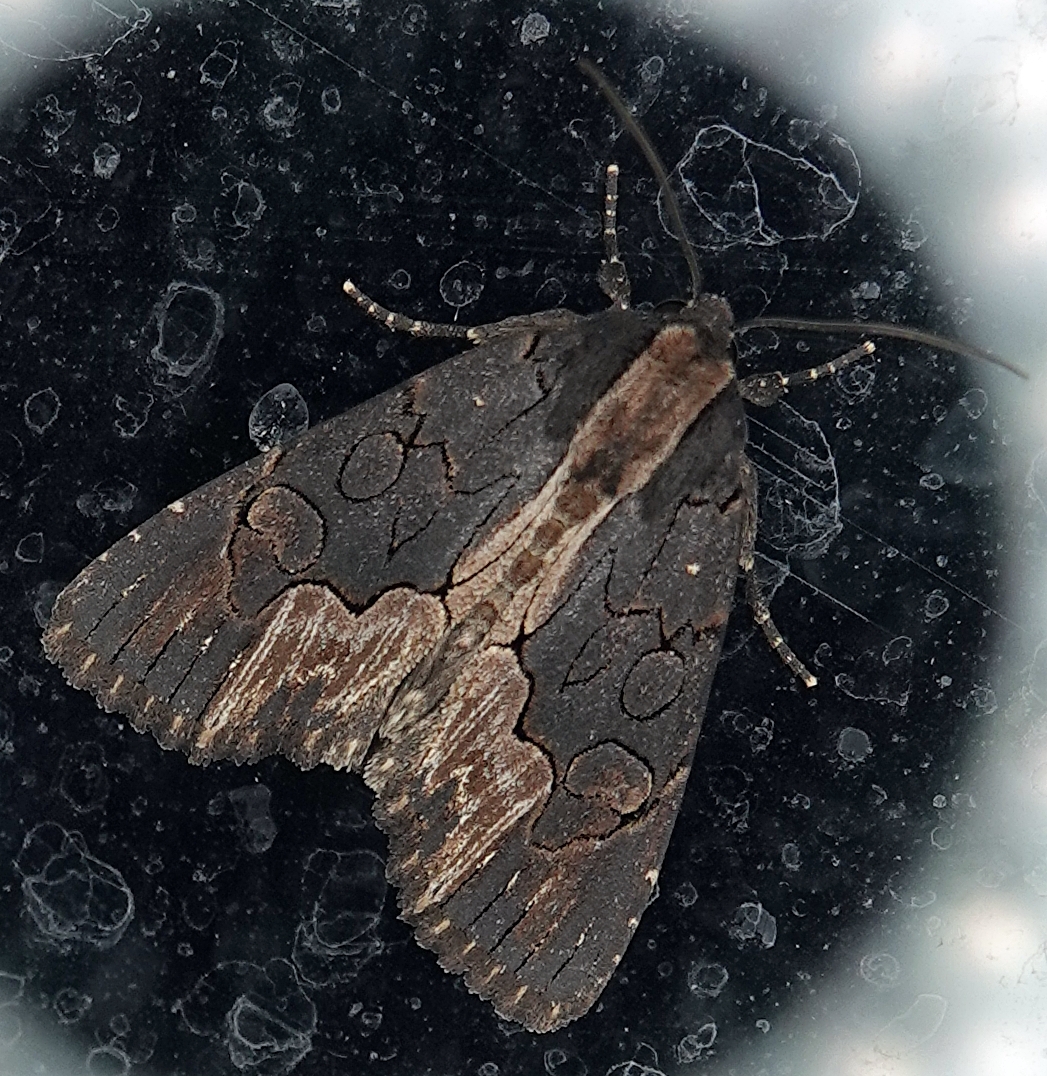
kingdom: Animalia
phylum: Arthropoda
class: Insecta
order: Lepidoptera
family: Noctuidae
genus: Dypterygia
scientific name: Dypterygia rozmani
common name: American bird's-wing
